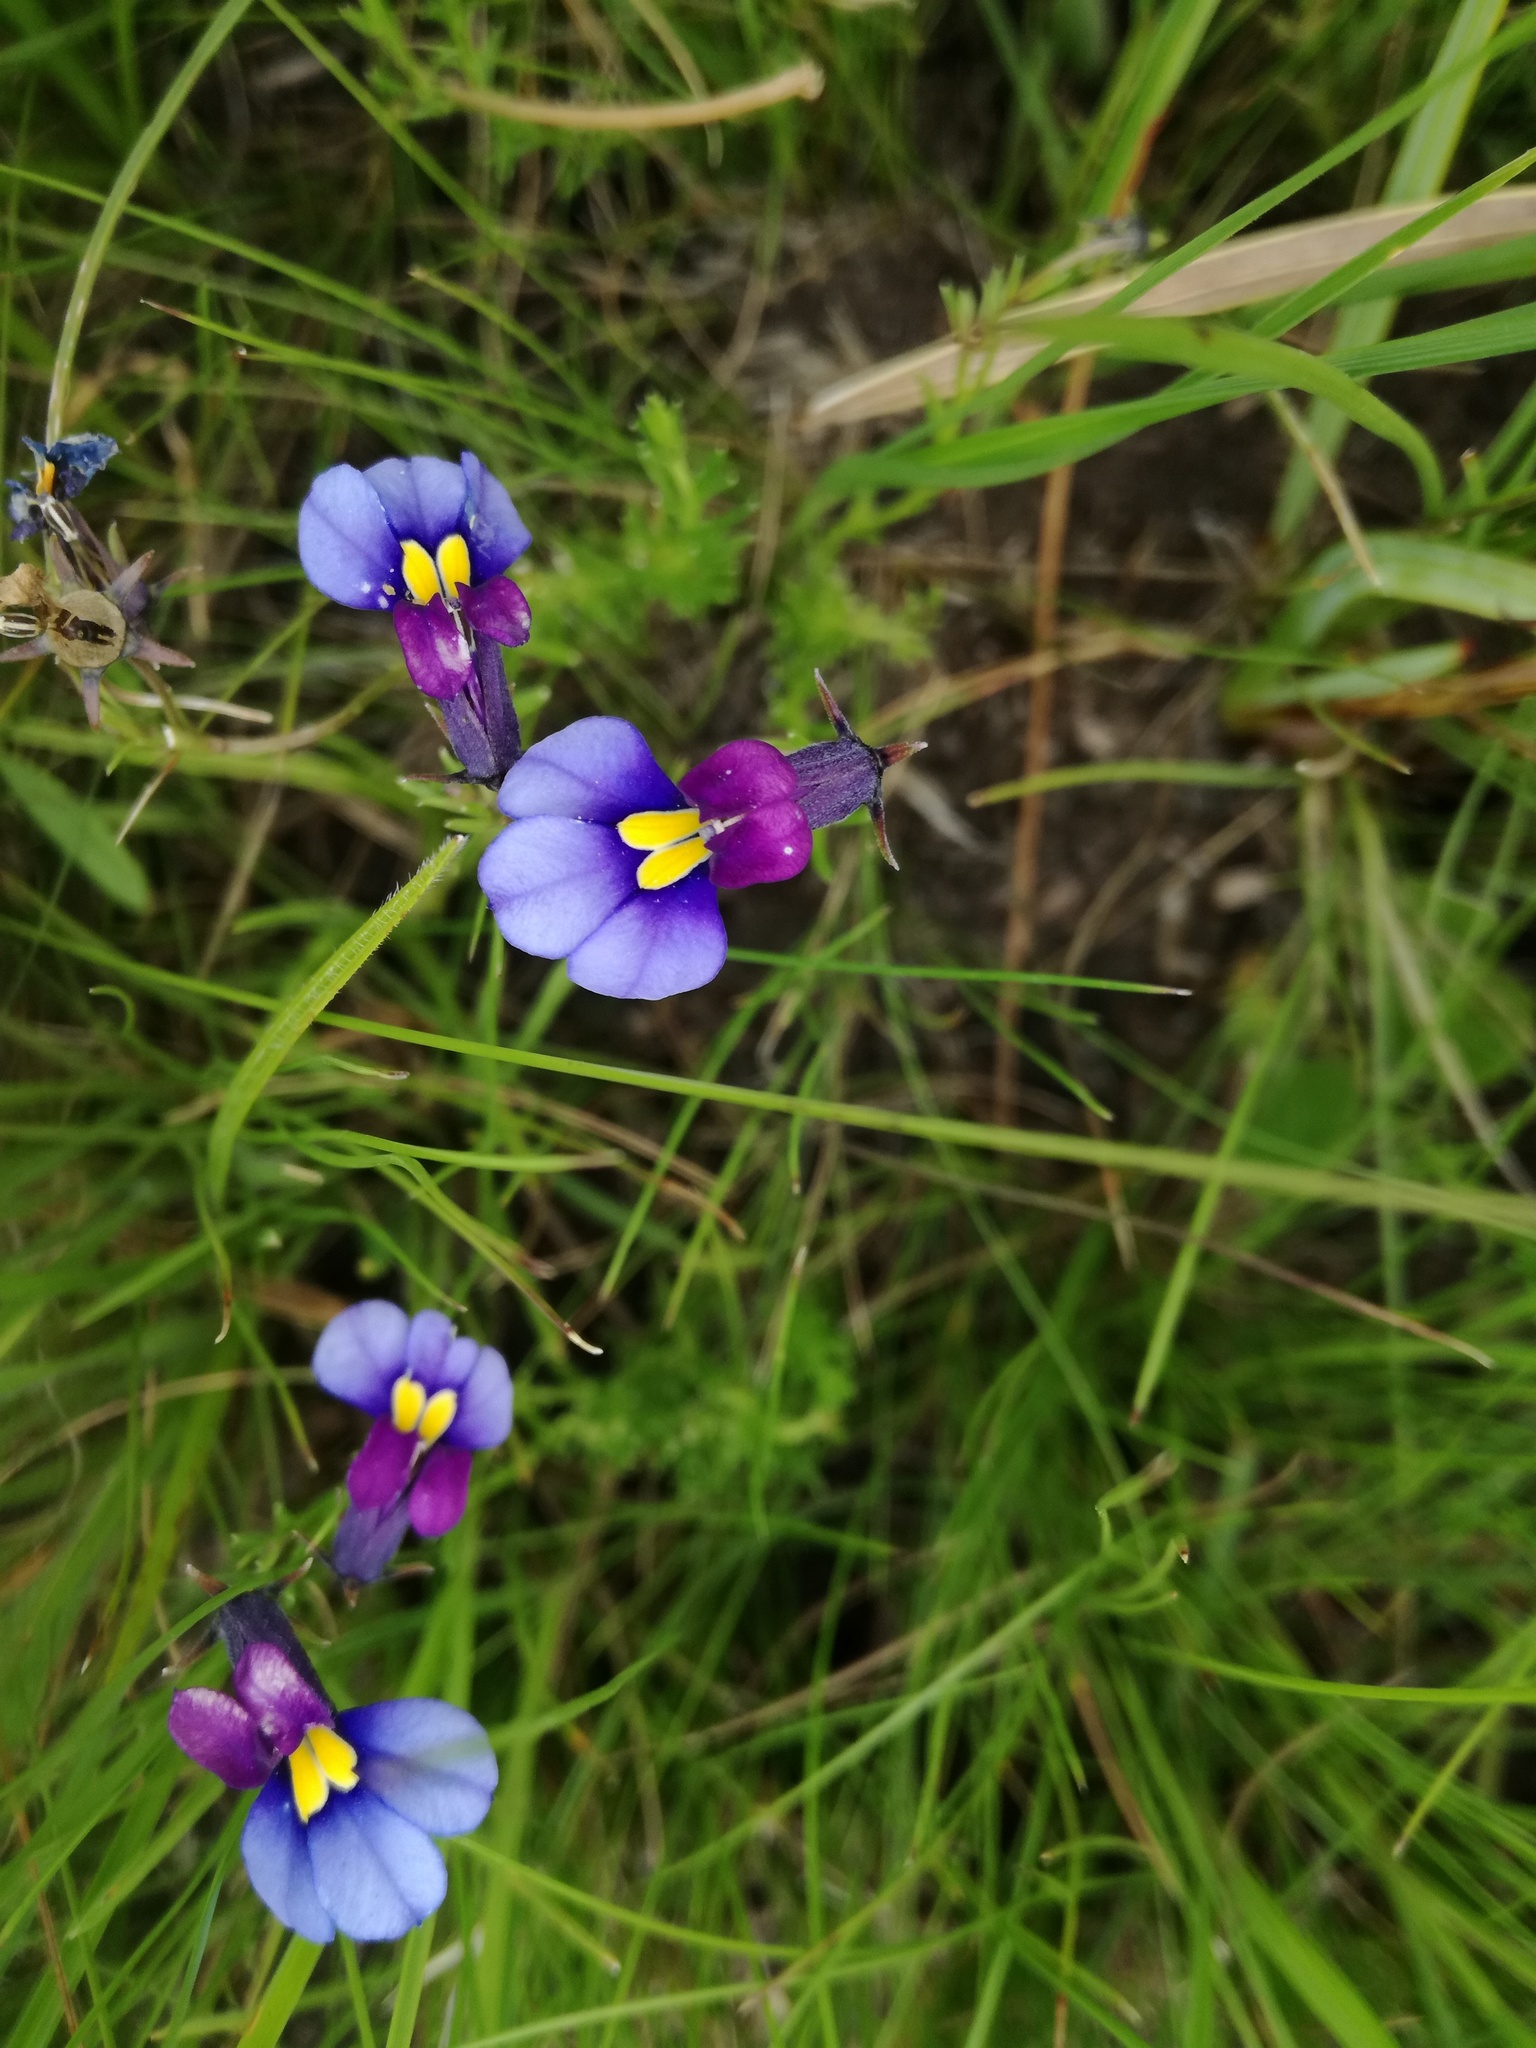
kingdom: Plantae
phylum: Tracheophyta
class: Magnoliopsida
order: Asterales
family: Campanulaceae
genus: Monopsis
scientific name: Monopsis decipiens
